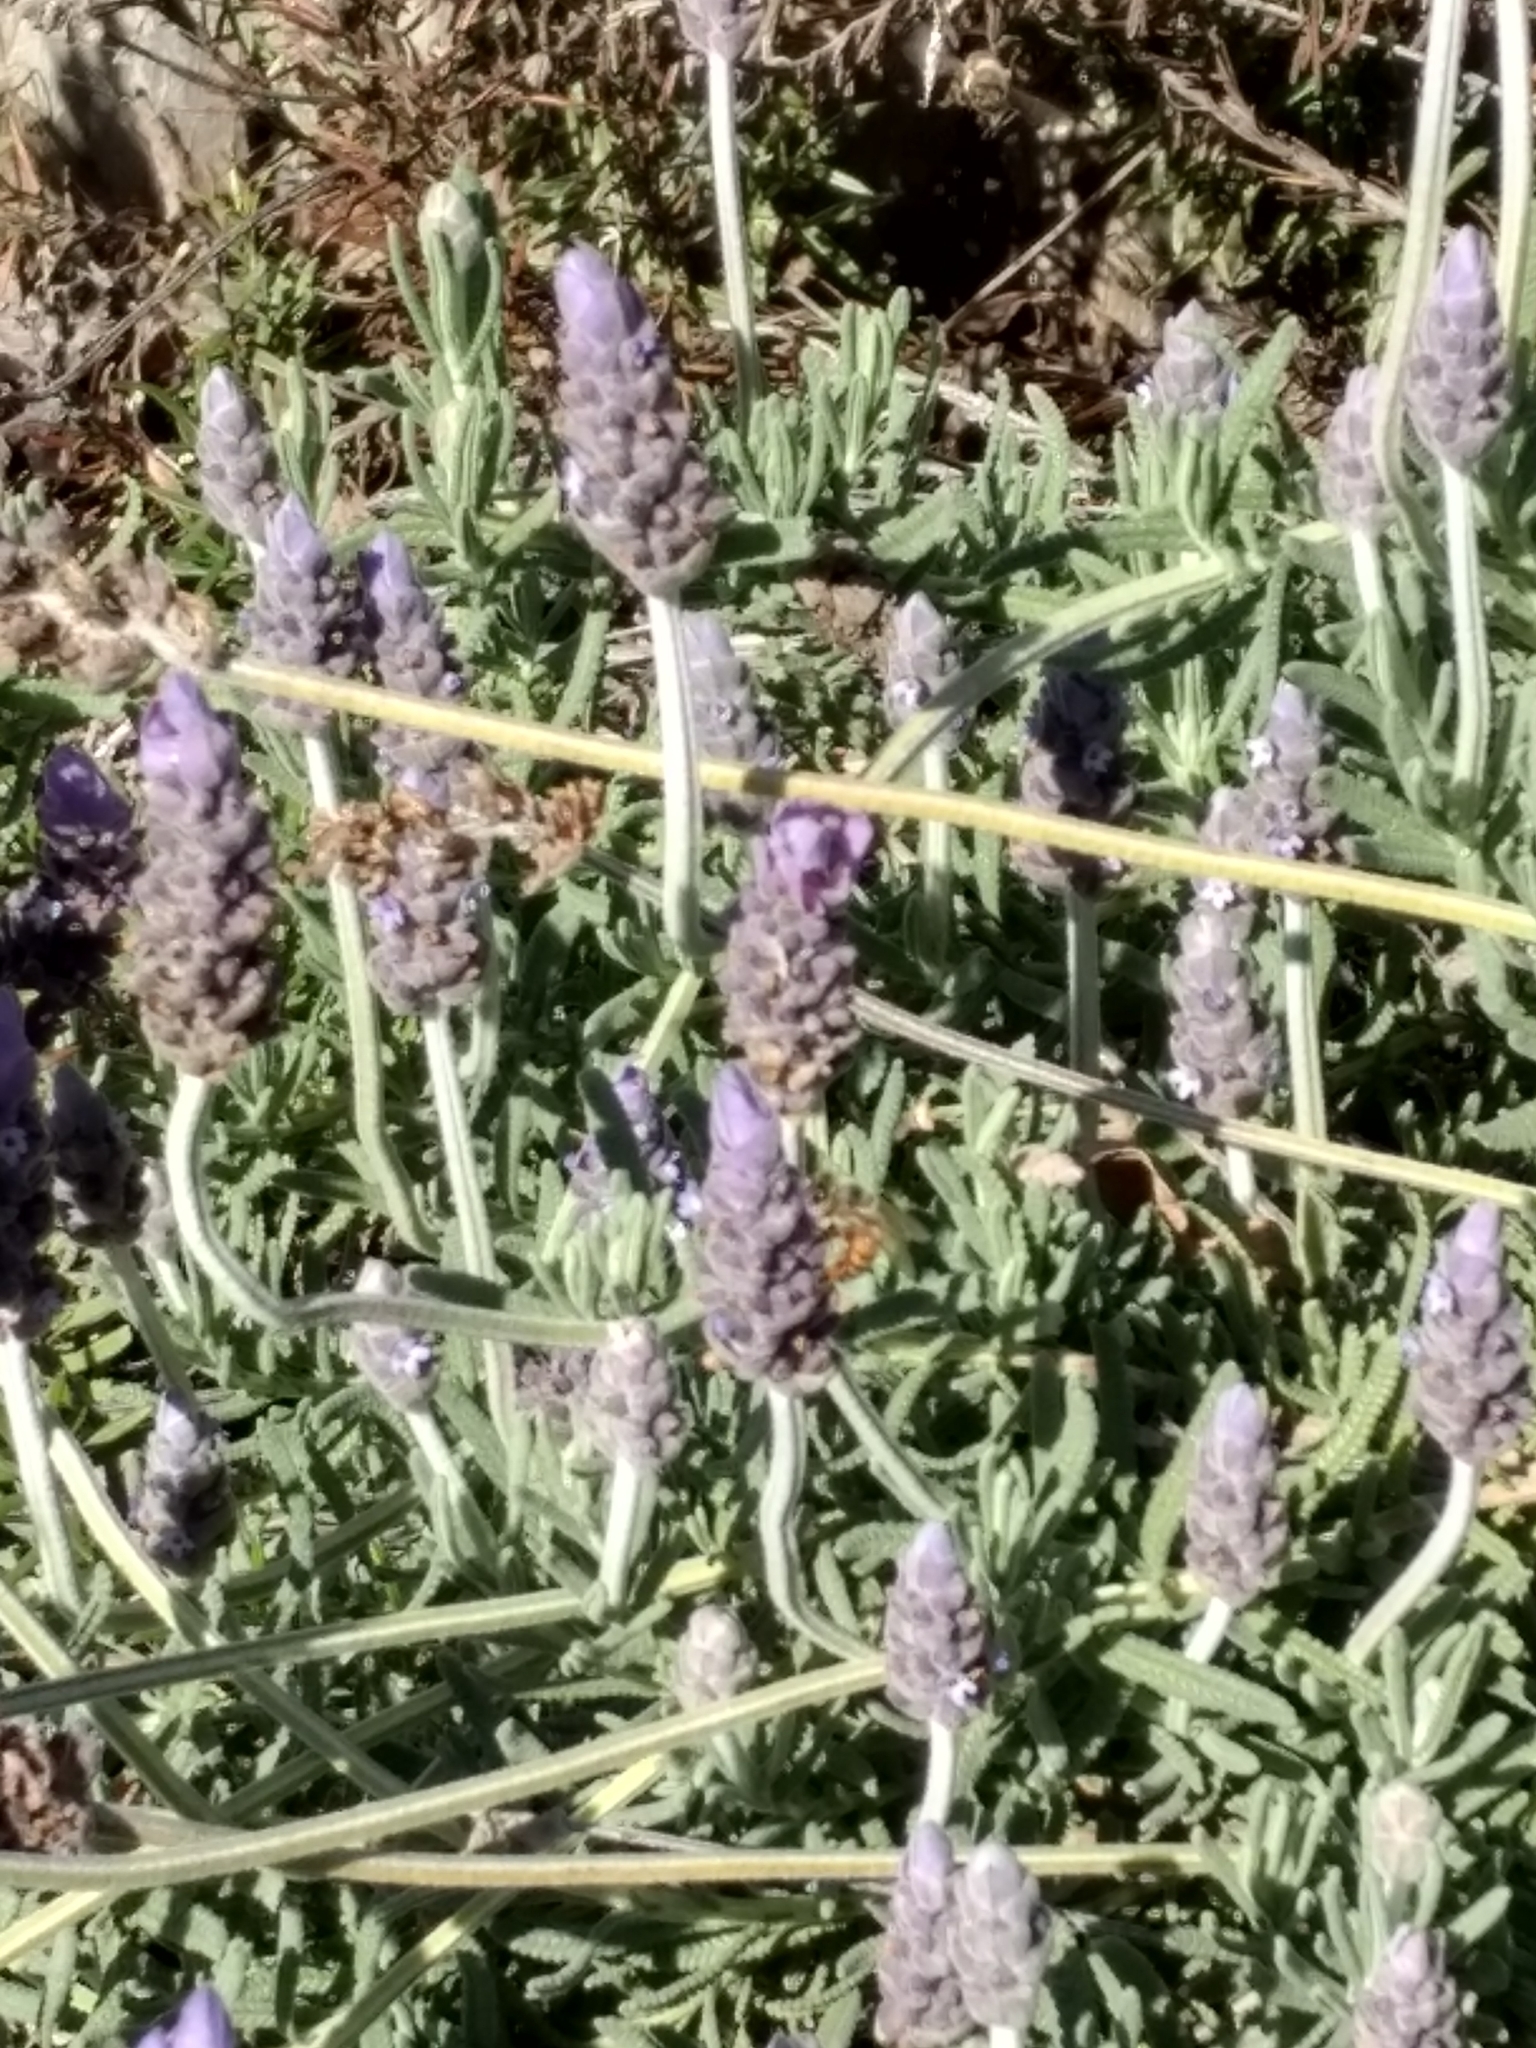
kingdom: Animalia
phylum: Arthropoda
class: Insecta
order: Hymenoptera
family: Apidae
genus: Apis
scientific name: Apis mellifera
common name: Honey bee
